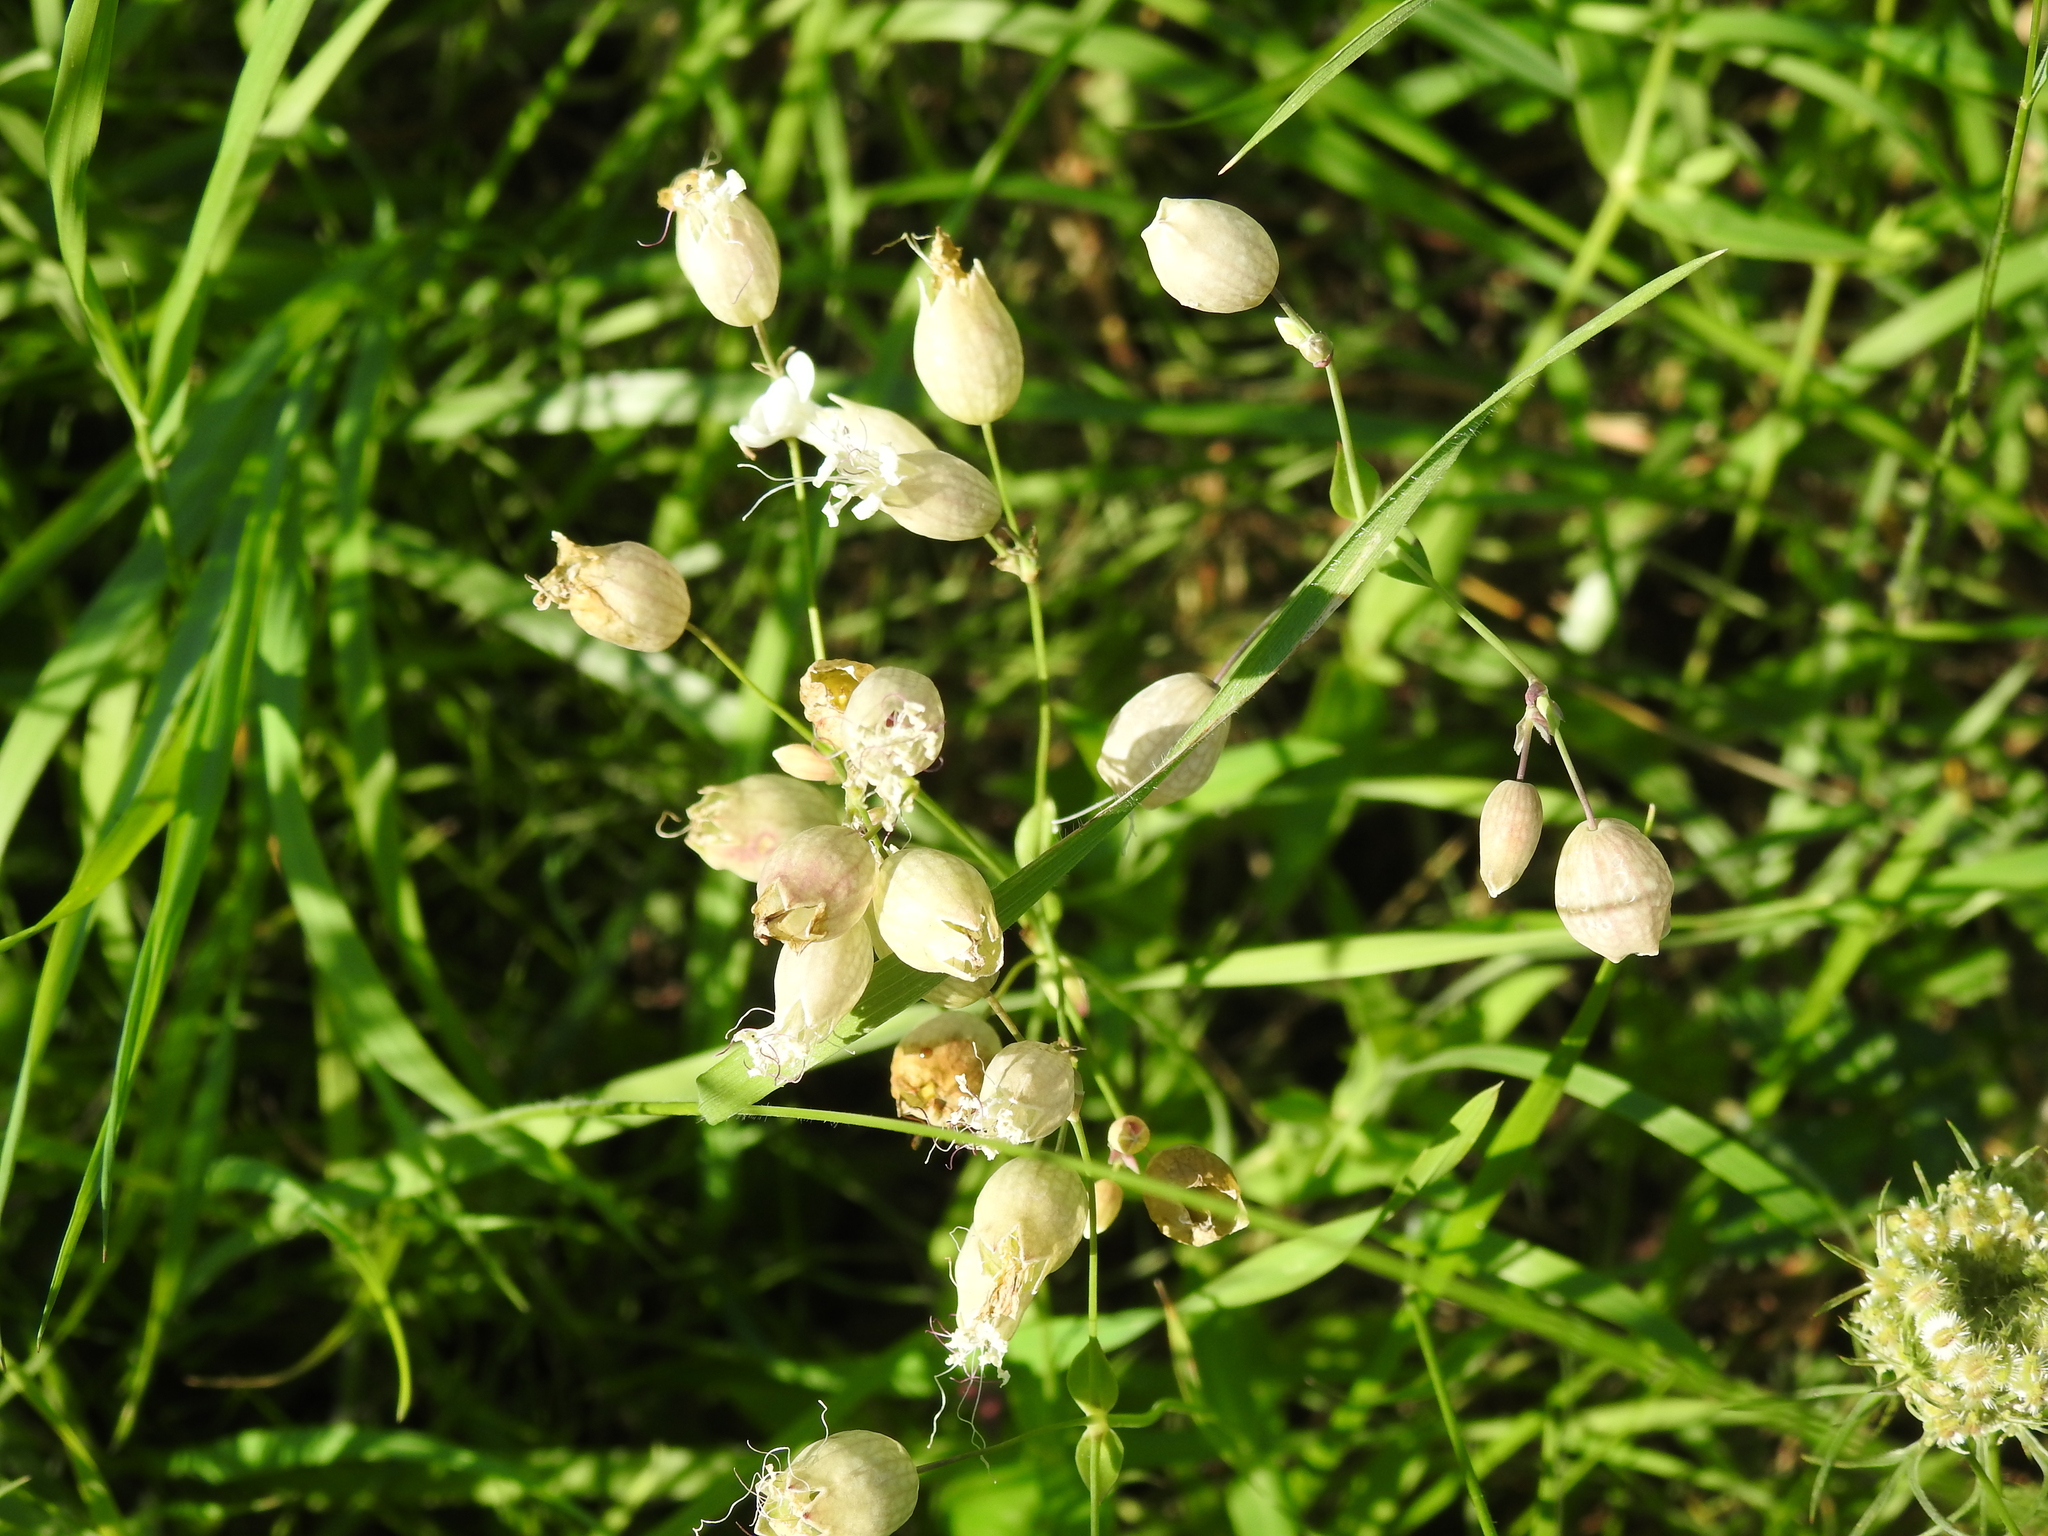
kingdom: Plantae
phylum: Tracheophyta
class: Magnoliopsida
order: Caryophyllales
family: Caryophyllaceae
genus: Silene
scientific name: Silene vulgaris
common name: Bladder campion
